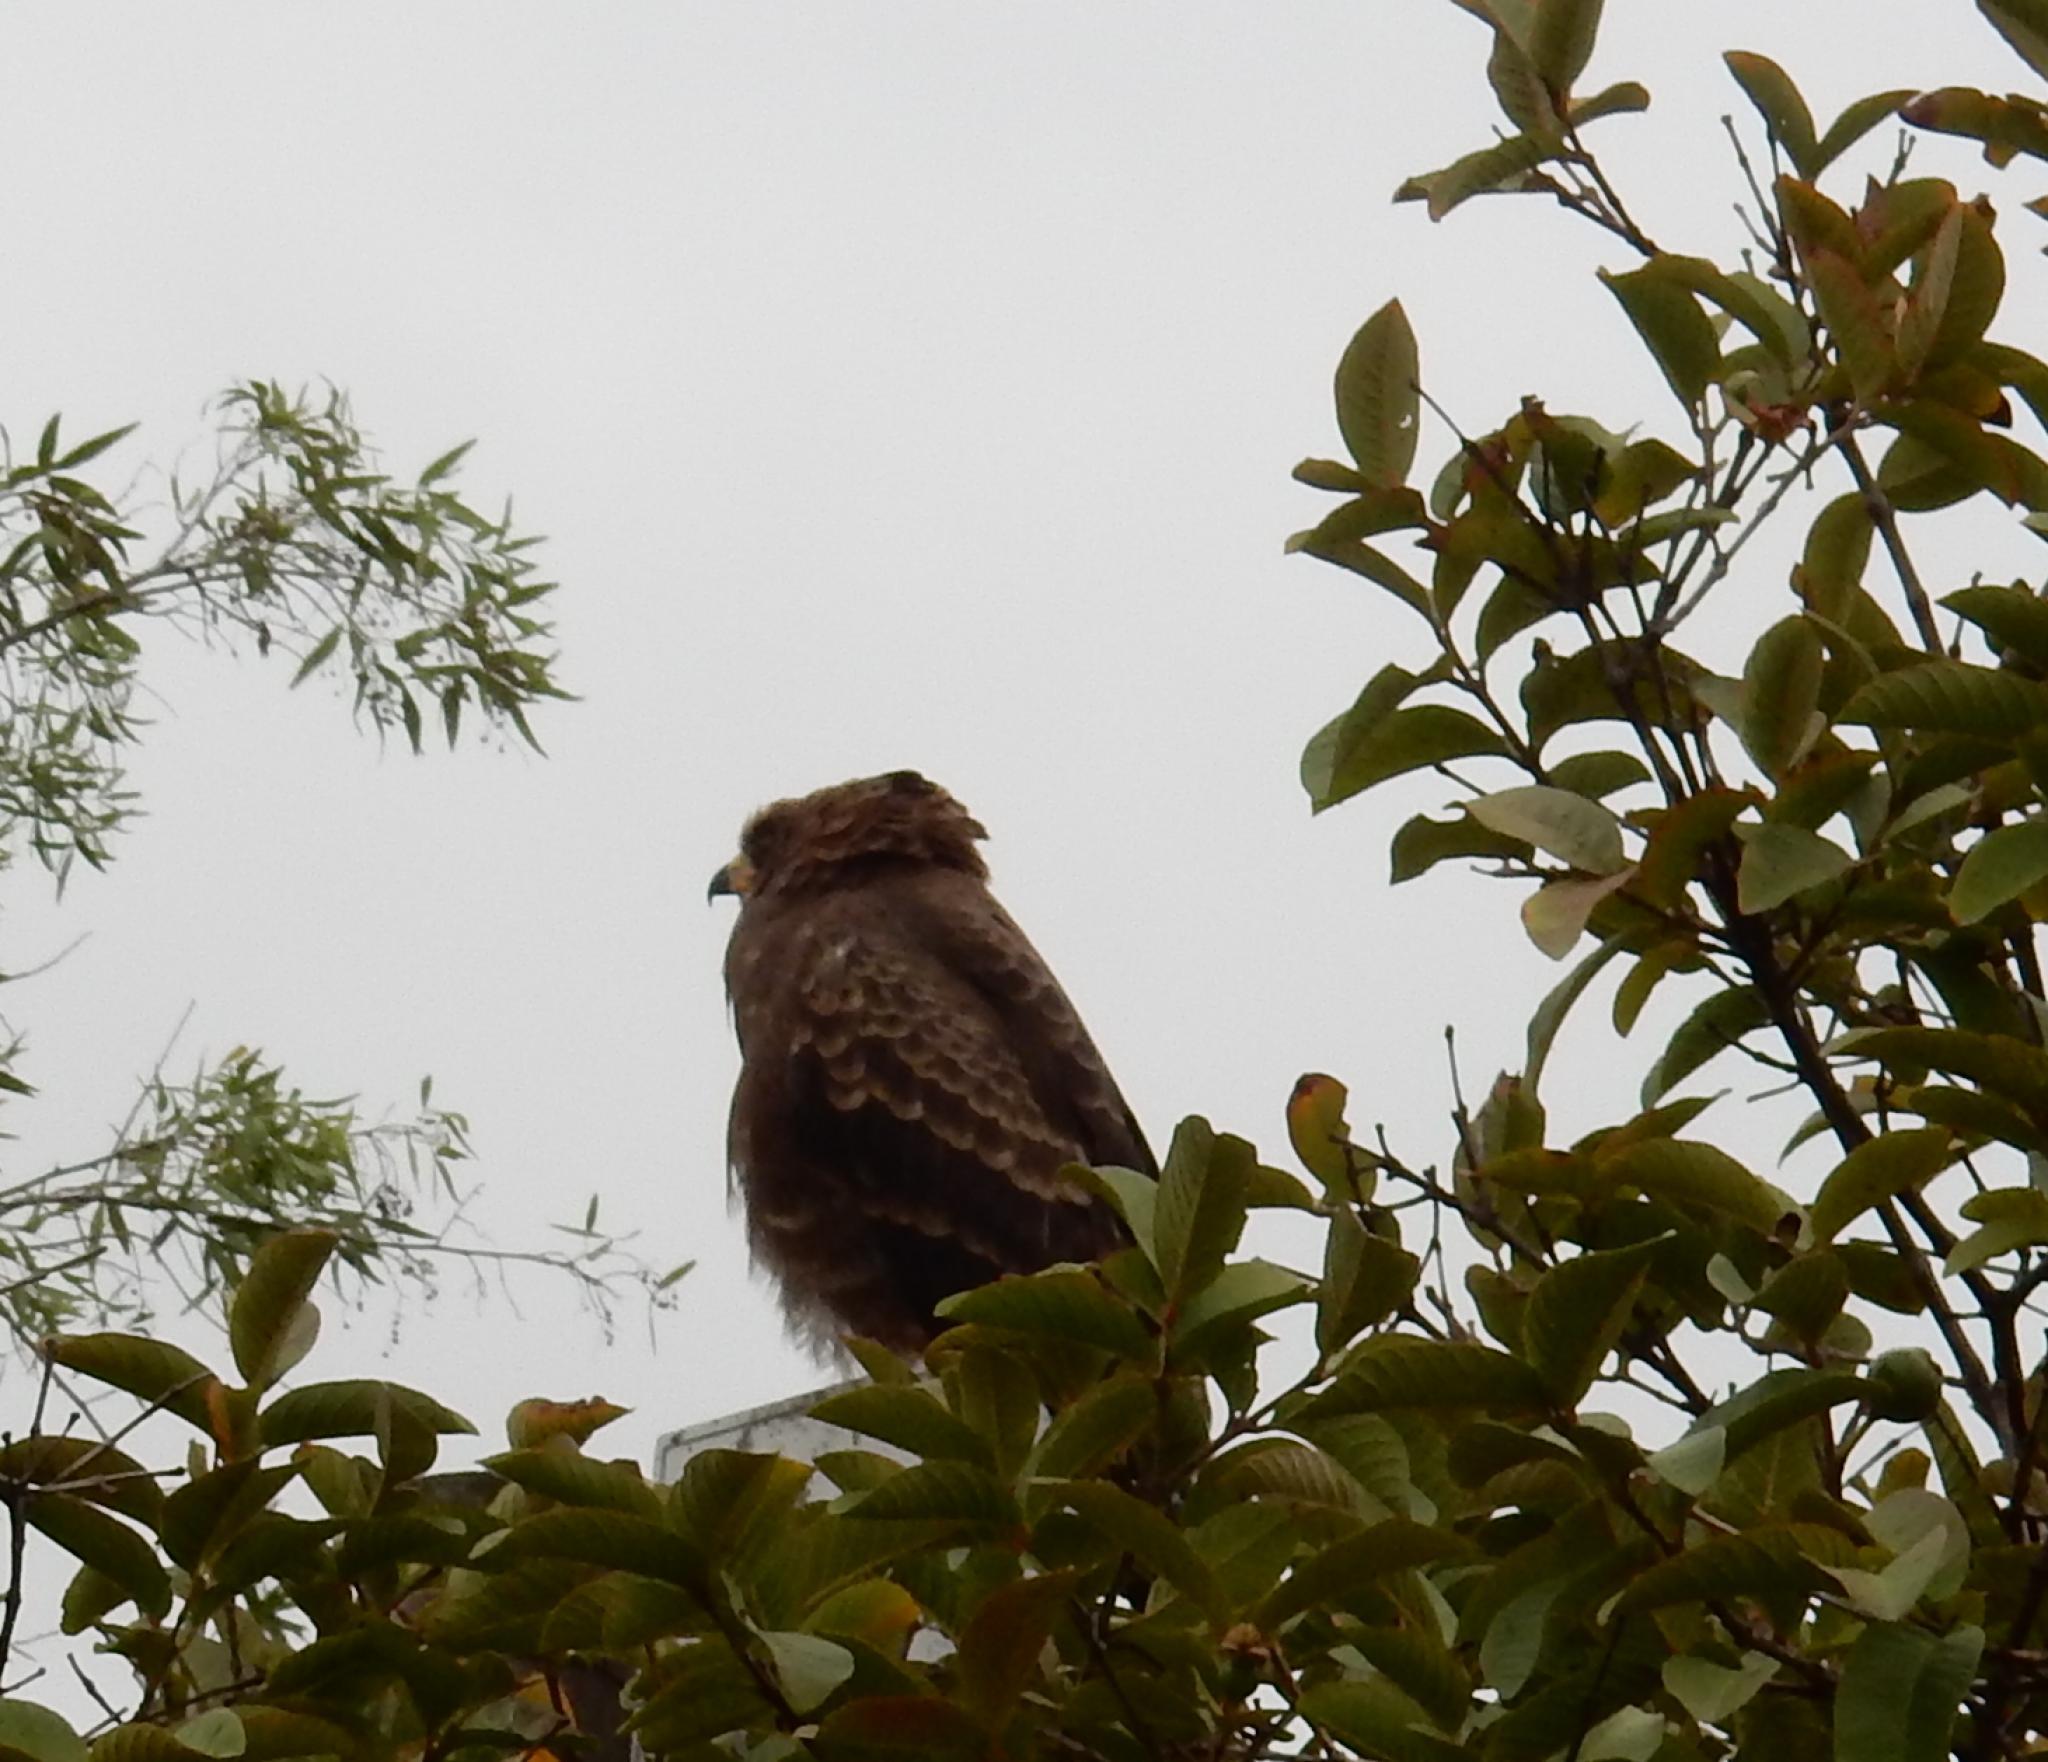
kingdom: Animalia
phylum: Chordata
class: Aves
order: Accipitriformes
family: Accipitridae
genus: Polyboroides
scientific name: Polyboroides typus
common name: African harrier-hawk
